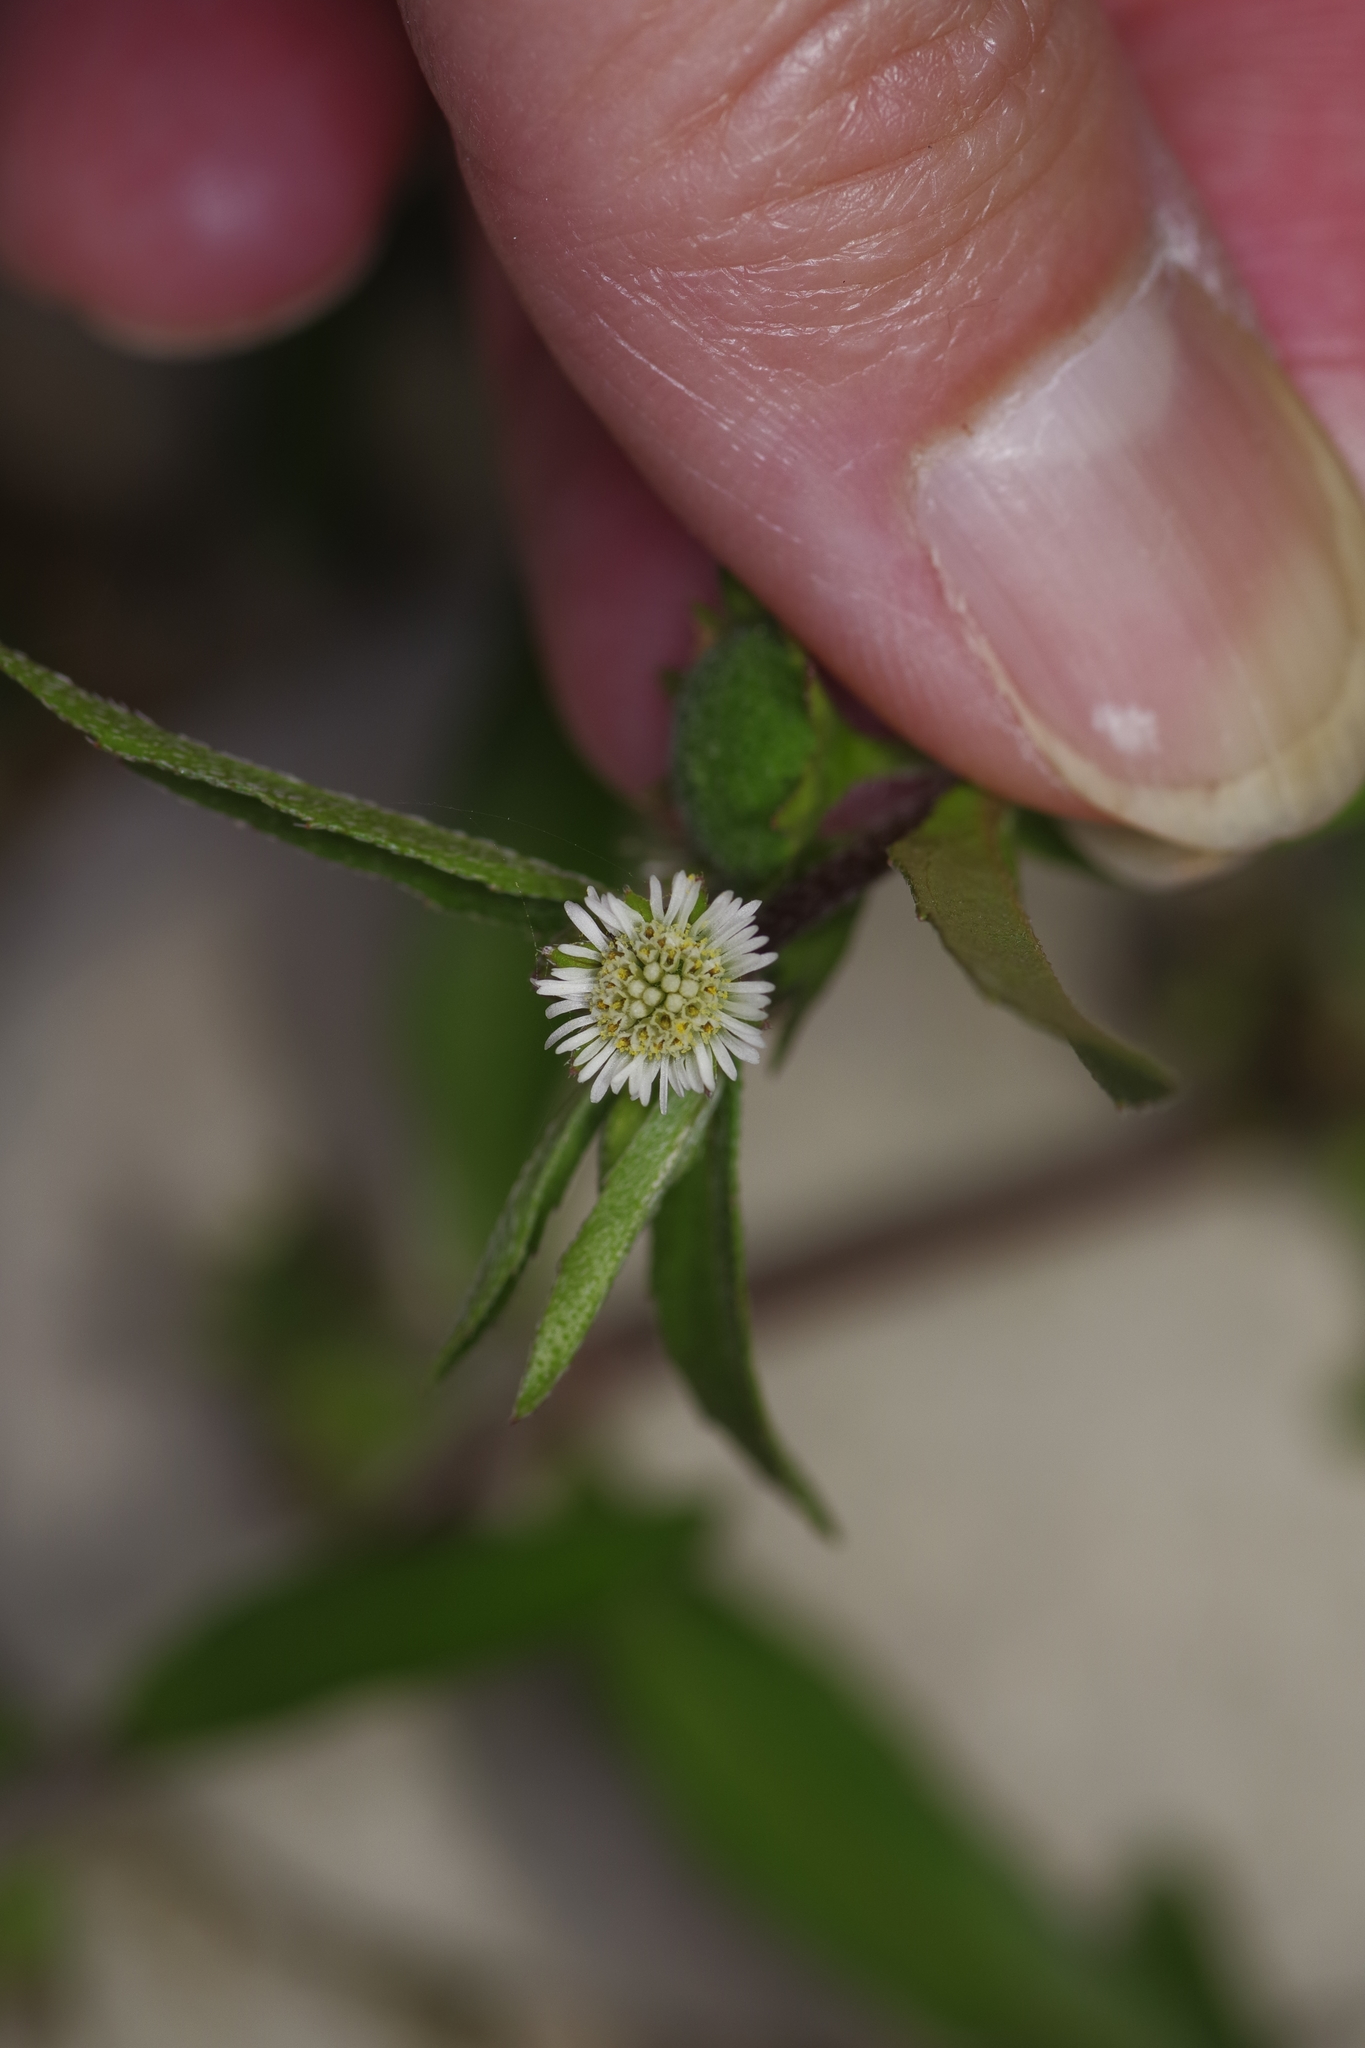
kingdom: Plantae
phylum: Tracheophyta
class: Magnoliopsida
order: Asterales
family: Asteraceae
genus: Eclipta
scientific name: Eclipta prostrata
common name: False daisy
